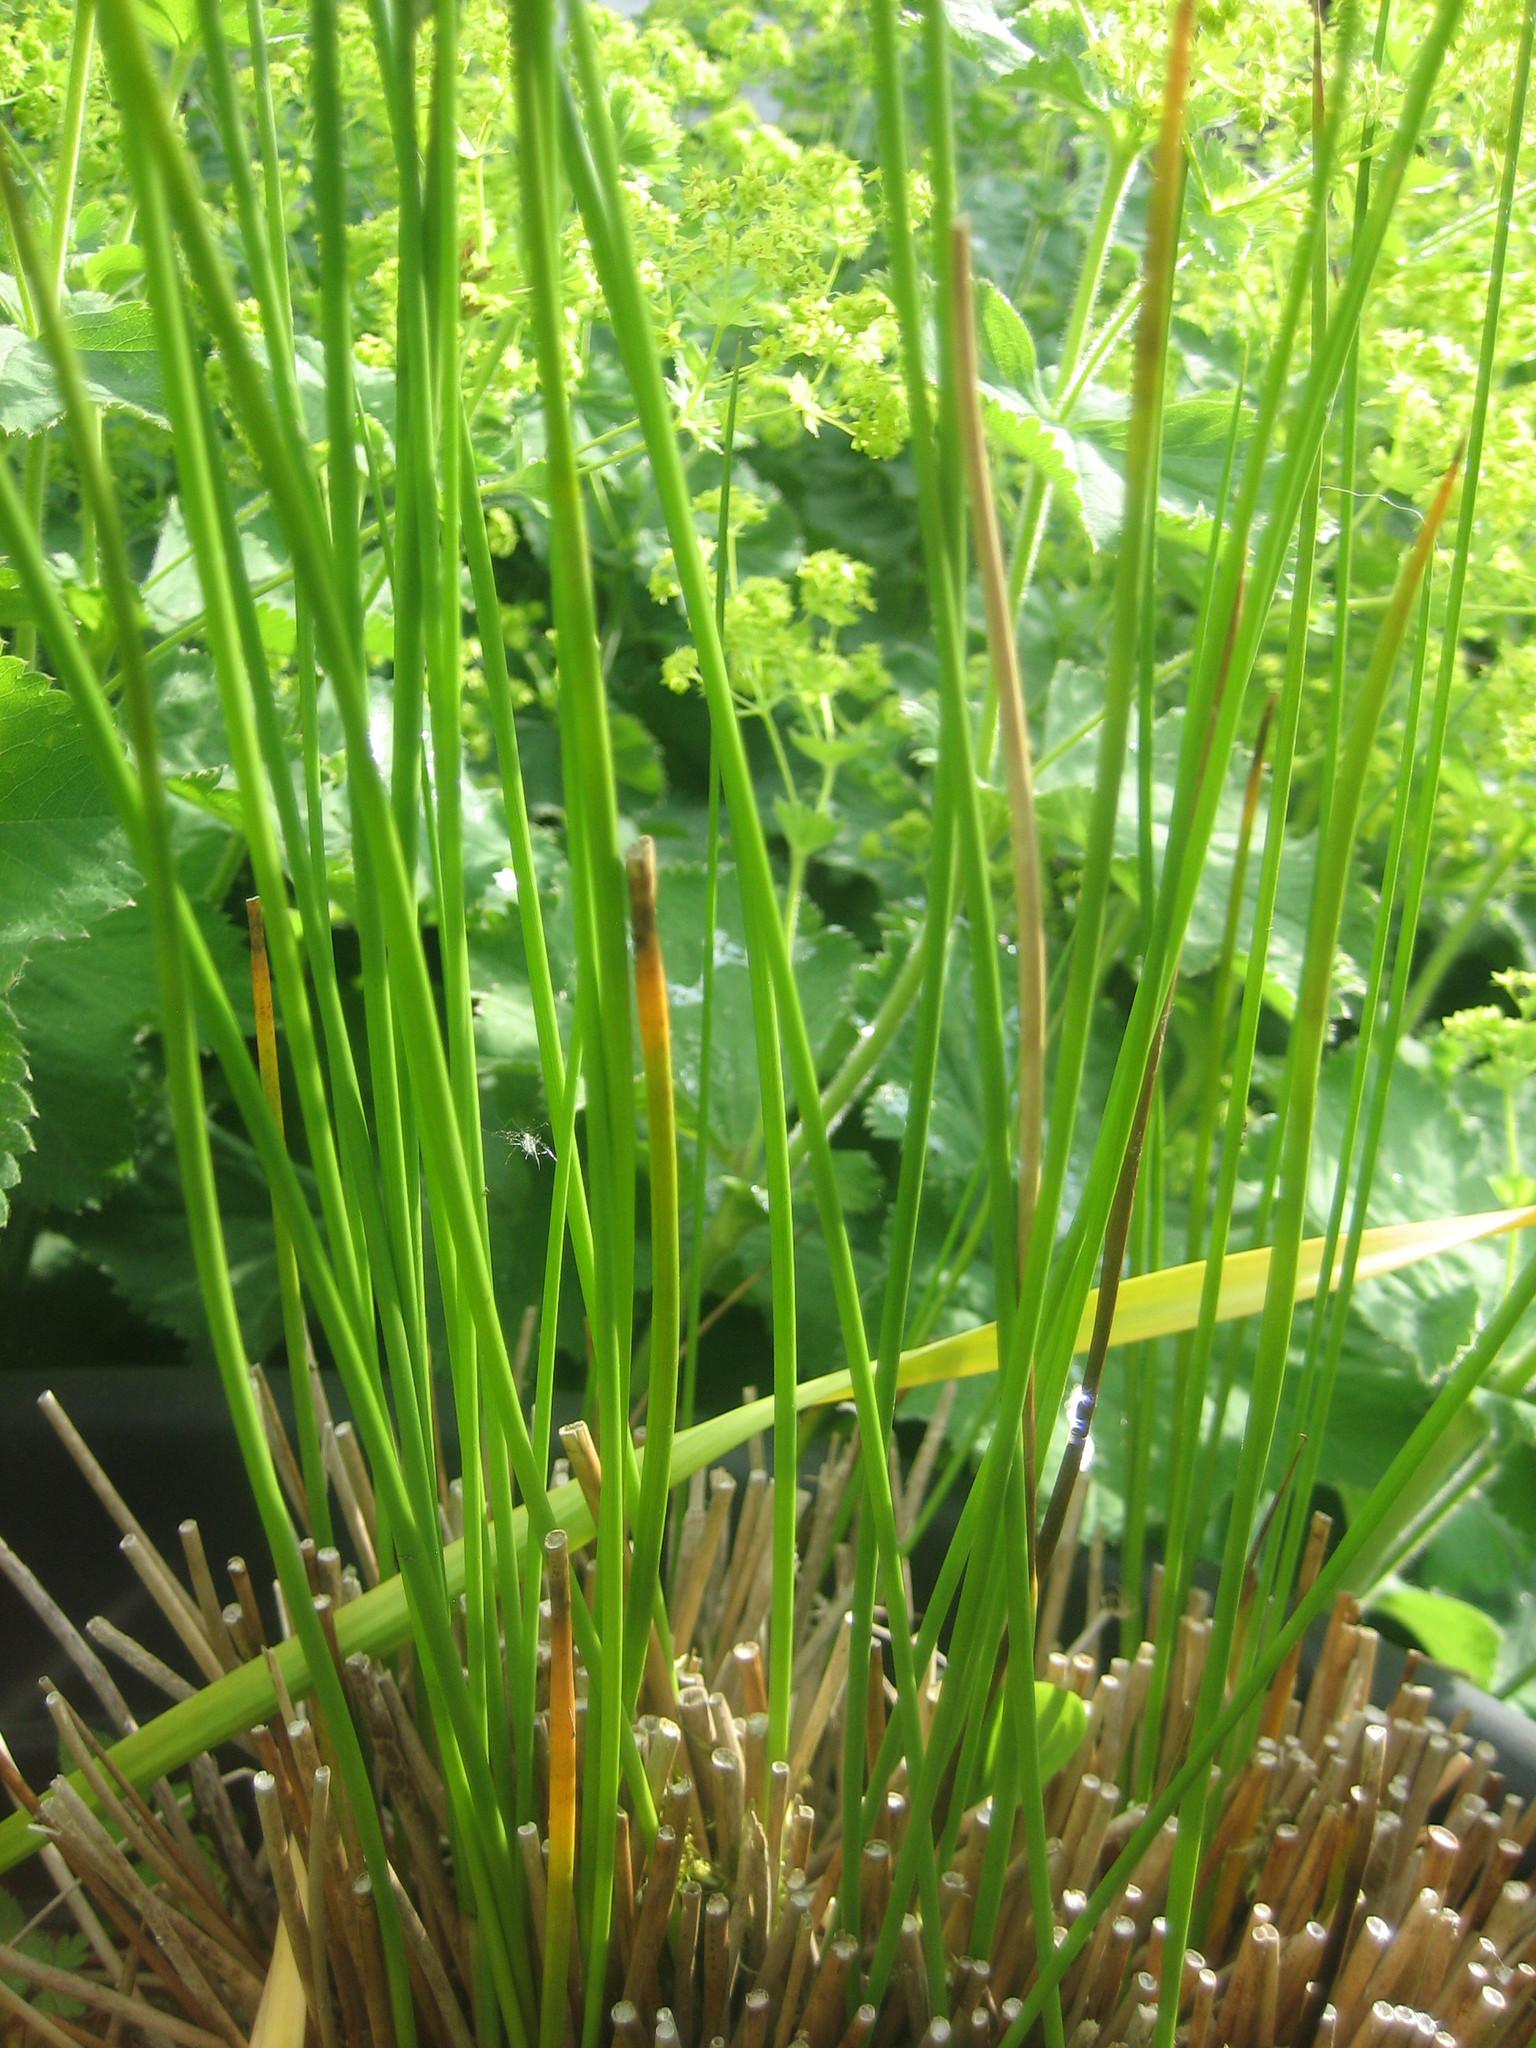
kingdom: Plantae
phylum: Tracheophyta
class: Liliopsida
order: Poales
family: Juncaceae
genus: Juncus
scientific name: Juncus effusus
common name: Soft rush
